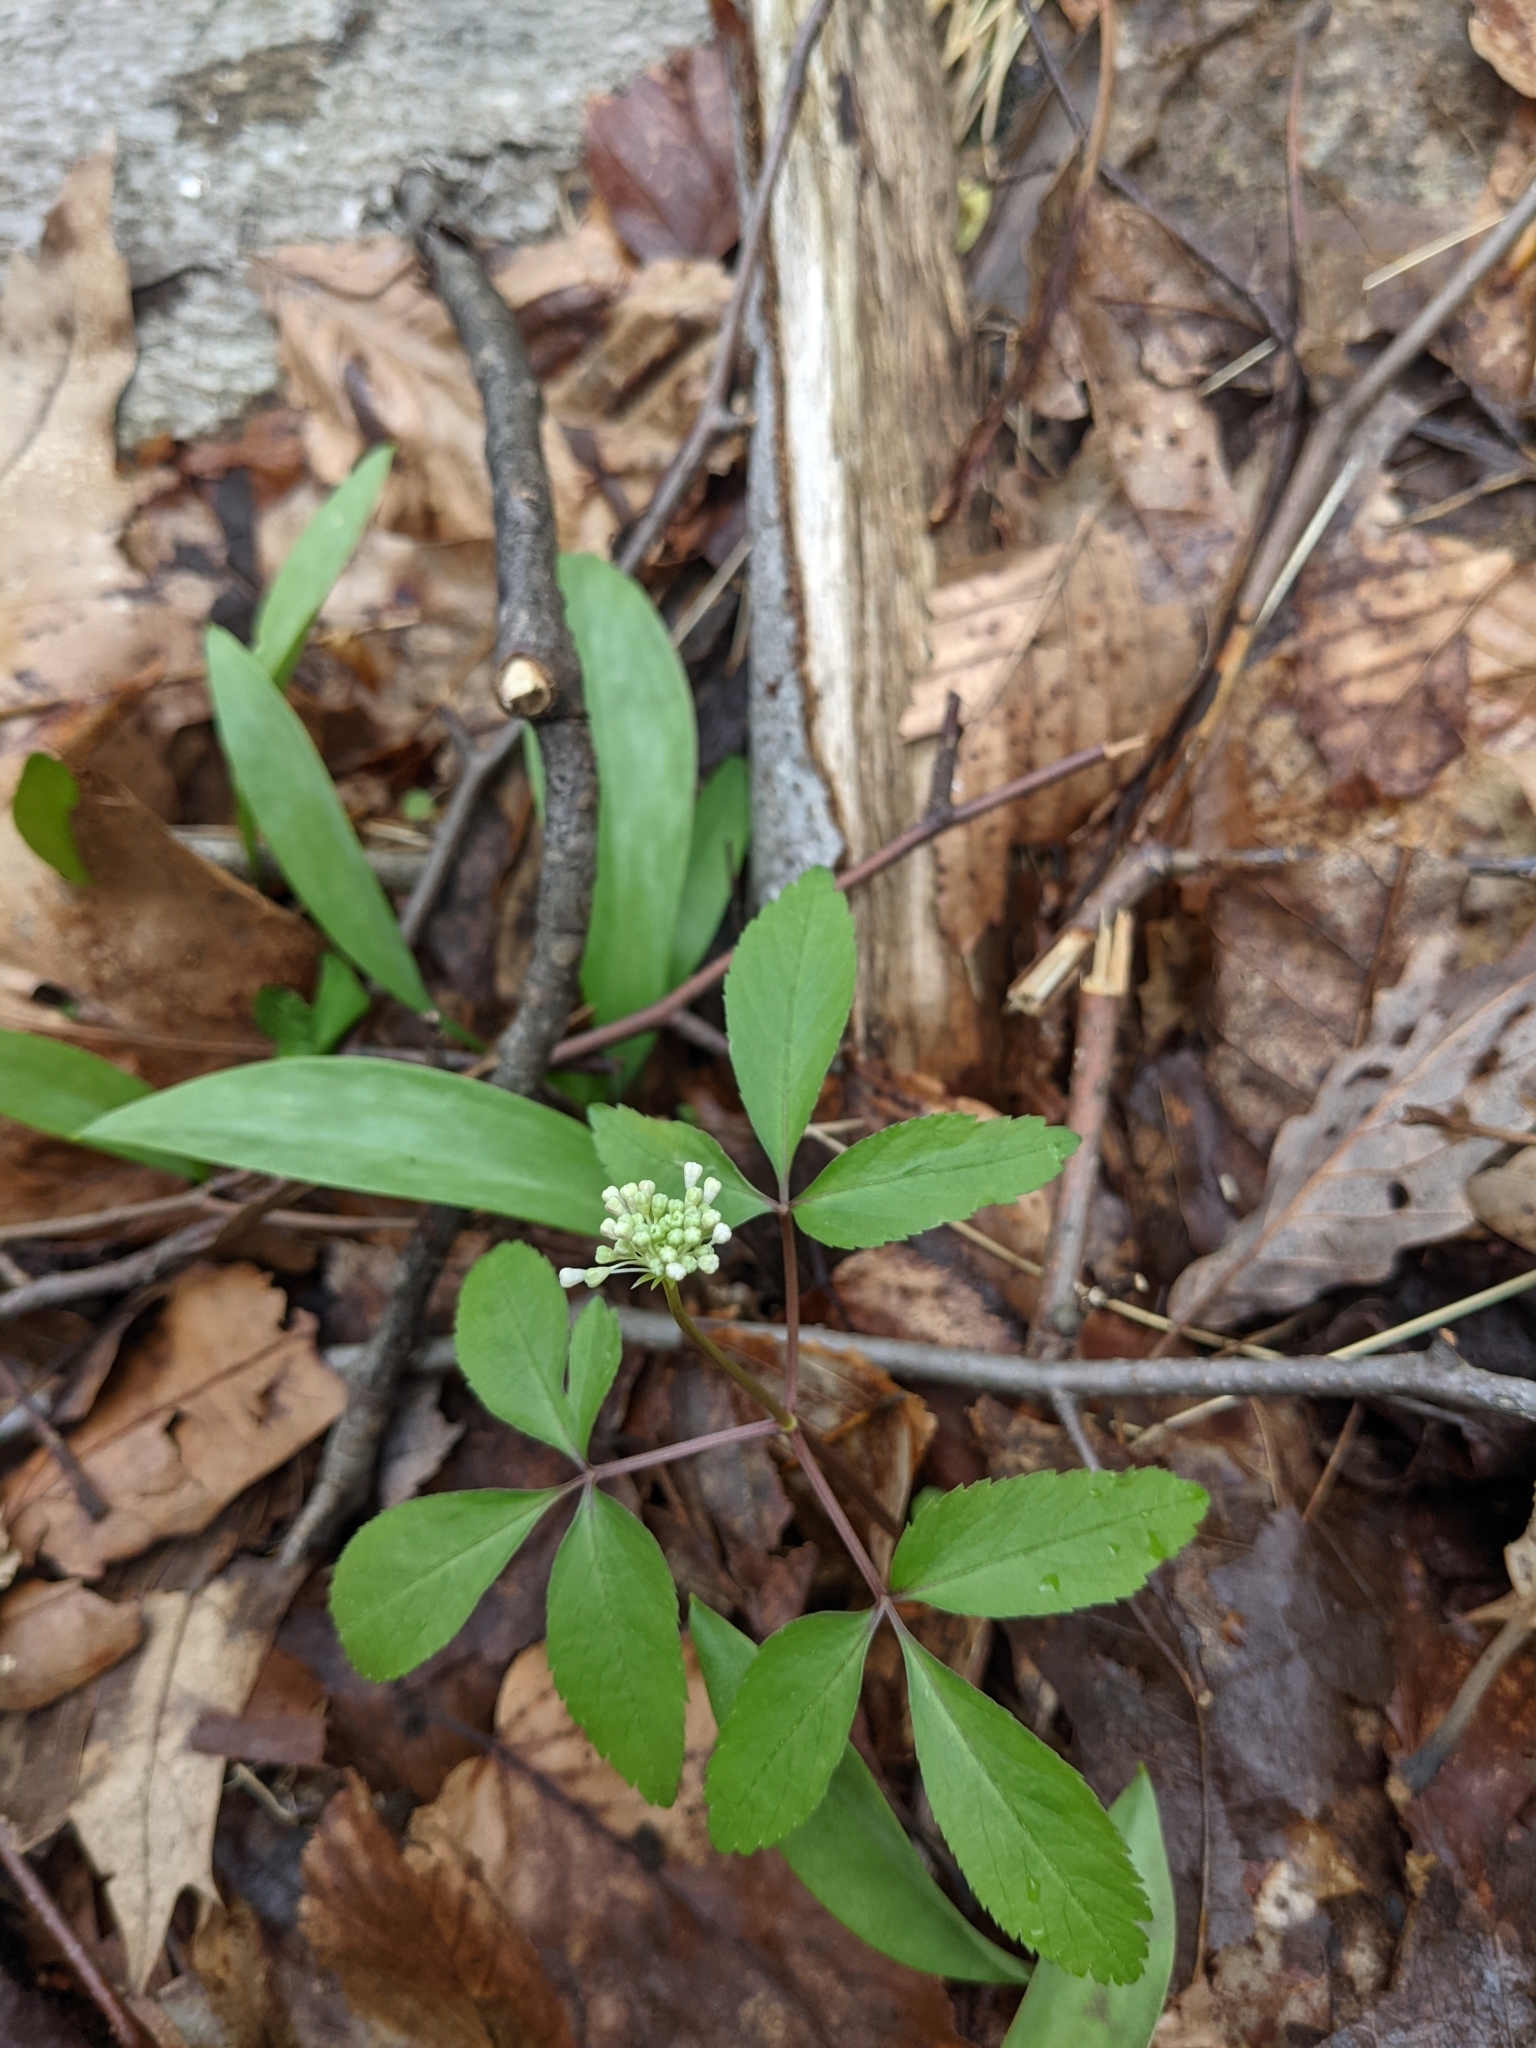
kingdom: Plantae
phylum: Tracheophyta
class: Magnoliopsida
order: Apiales
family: Araliaceae
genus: Panax
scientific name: Panax trifolius
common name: Dwarf ginseng
